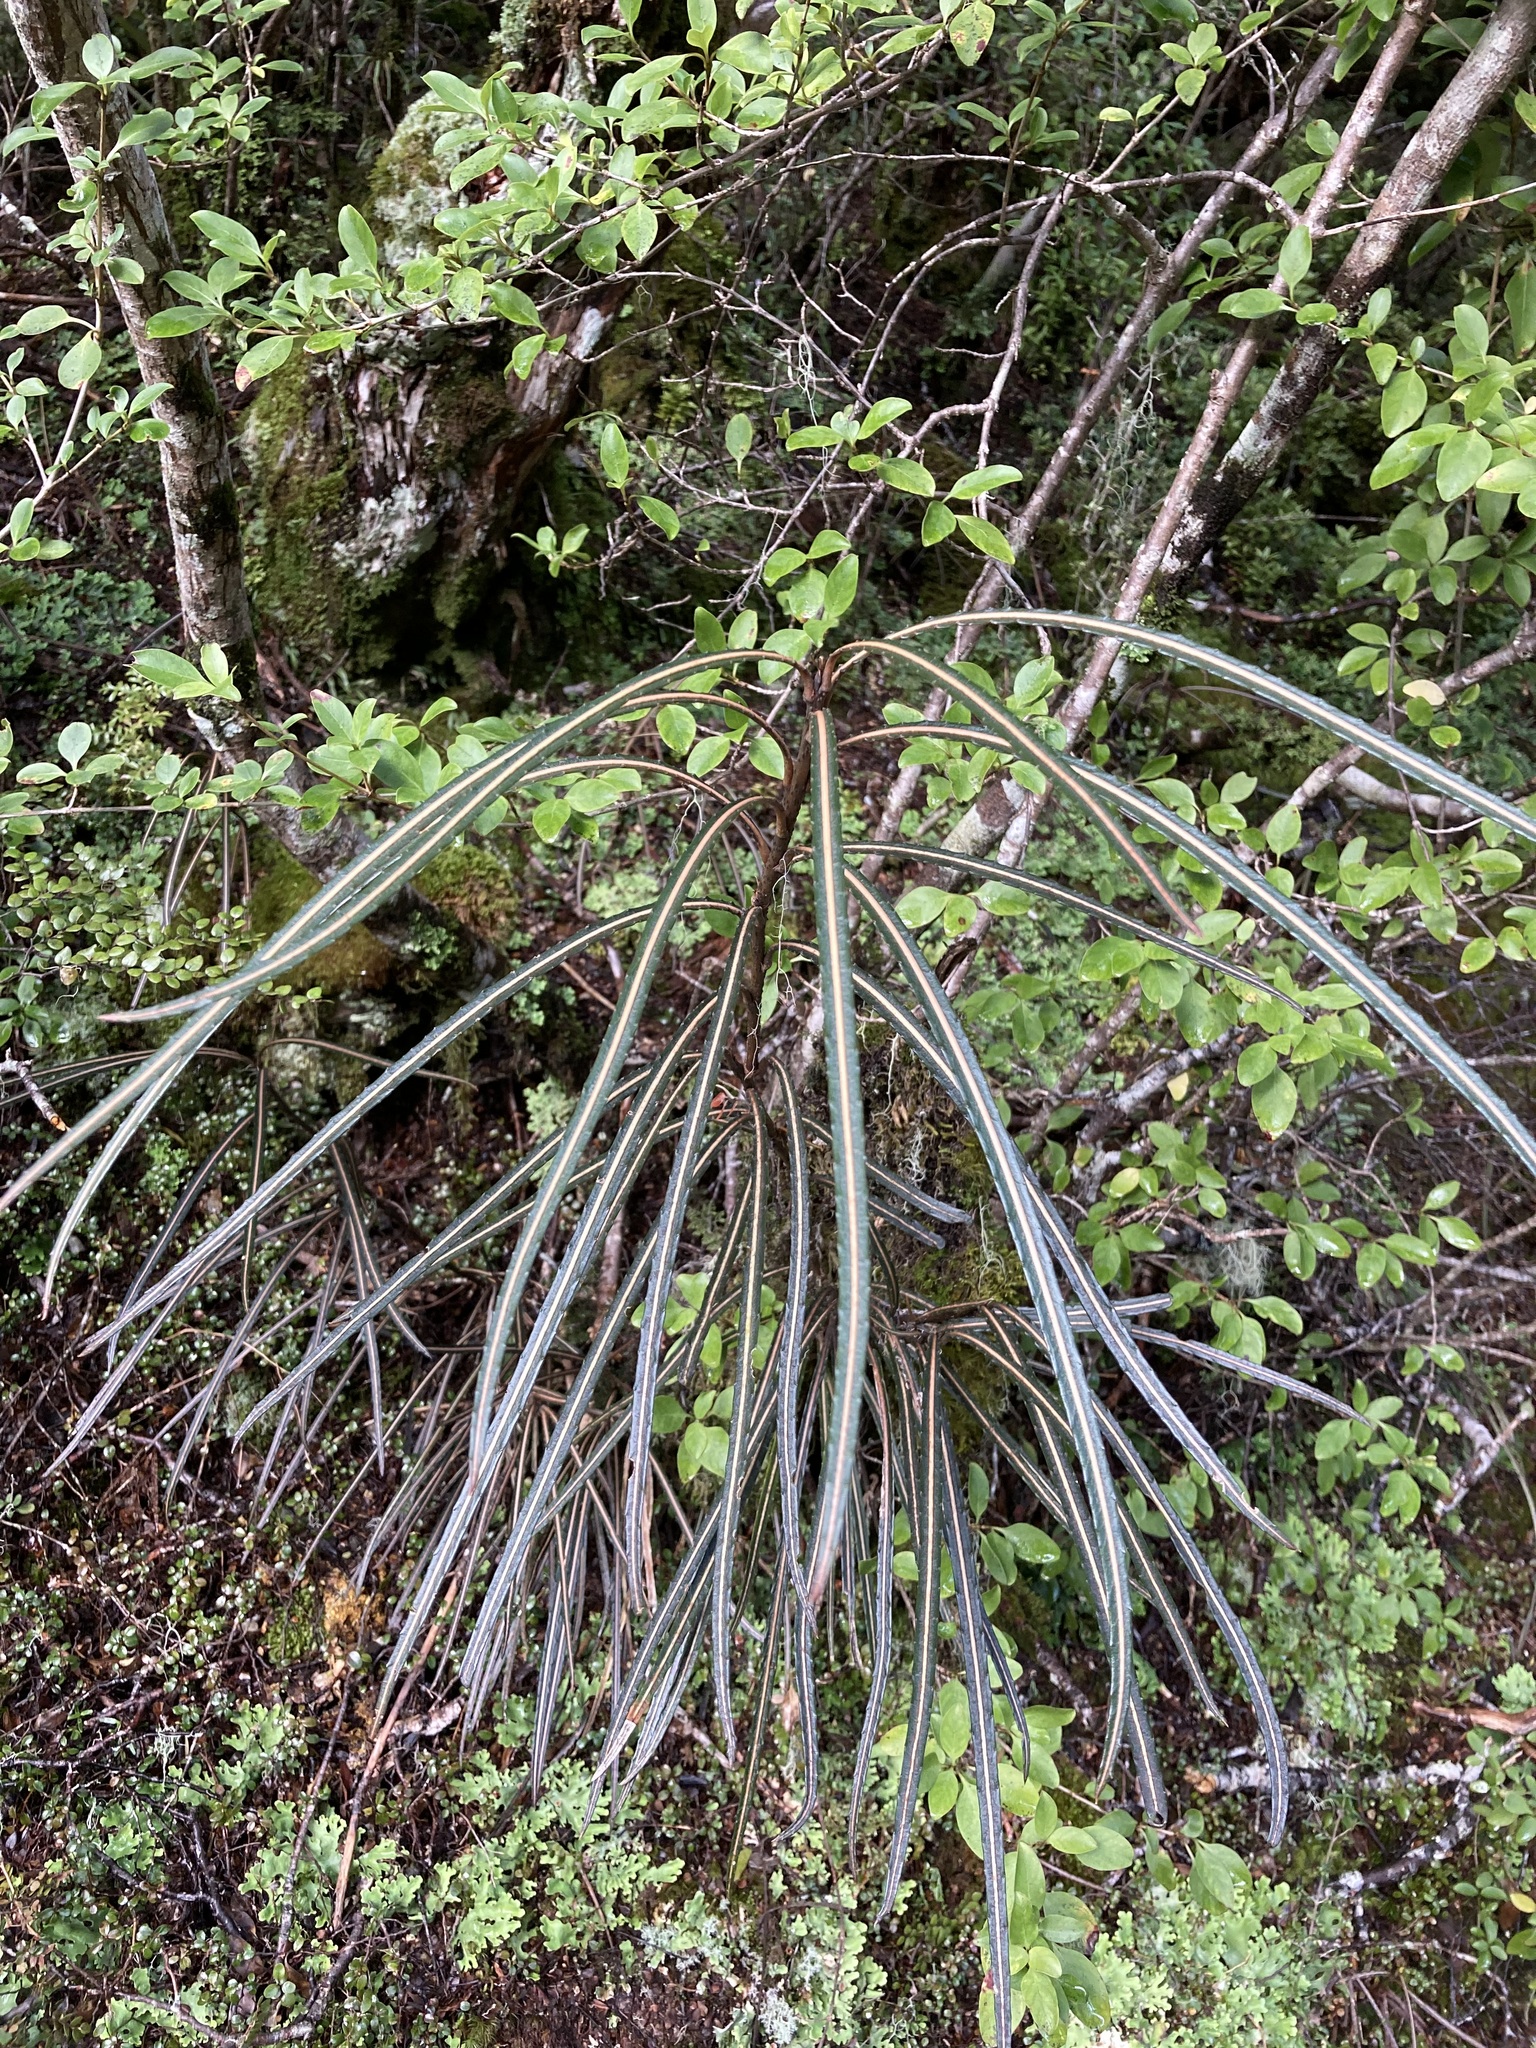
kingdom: Plantae
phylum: Tracheophyta
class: Magnoliopsida
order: Apiales
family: Araliaceae
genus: Pseudopanax
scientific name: Pseudopanax crassifolius
